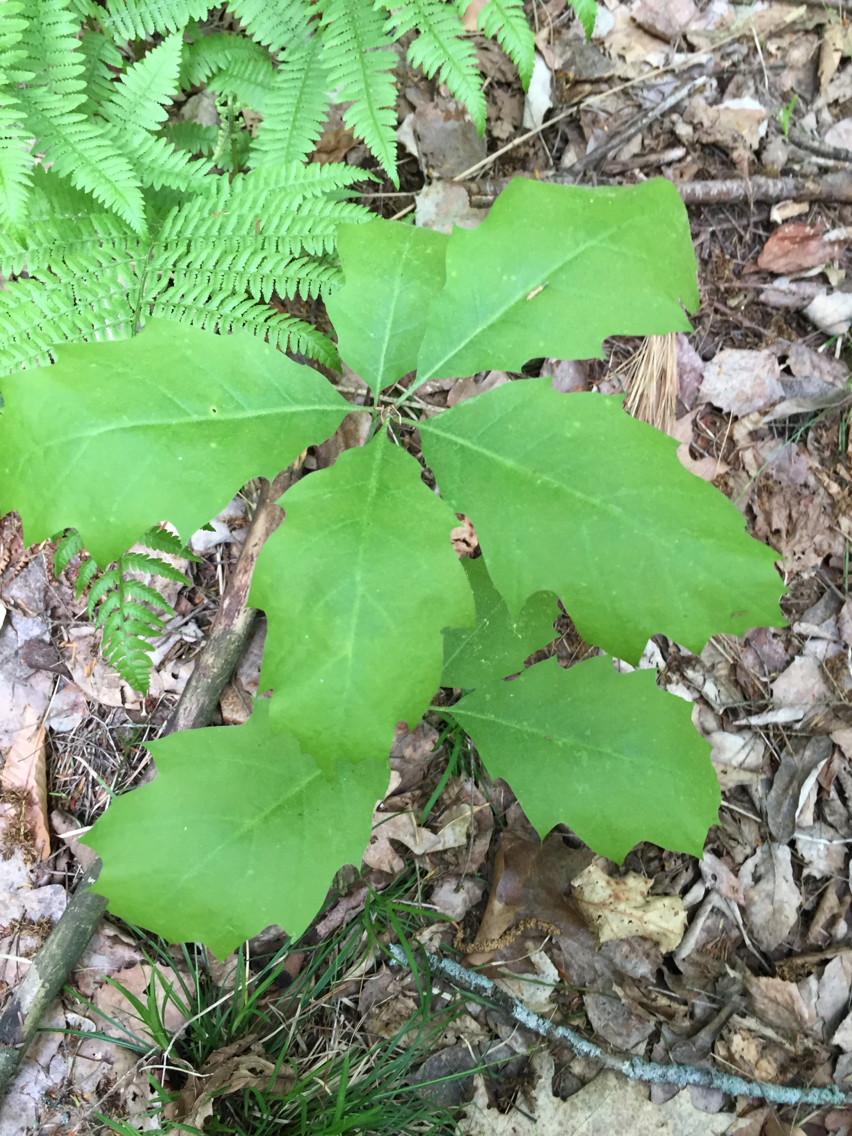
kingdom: Plantae
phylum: Tracheophyta
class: Magnoliopsida
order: Fagales
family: Fagaceae
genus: Quercus
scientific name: Quercus rubra
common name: Red oak
